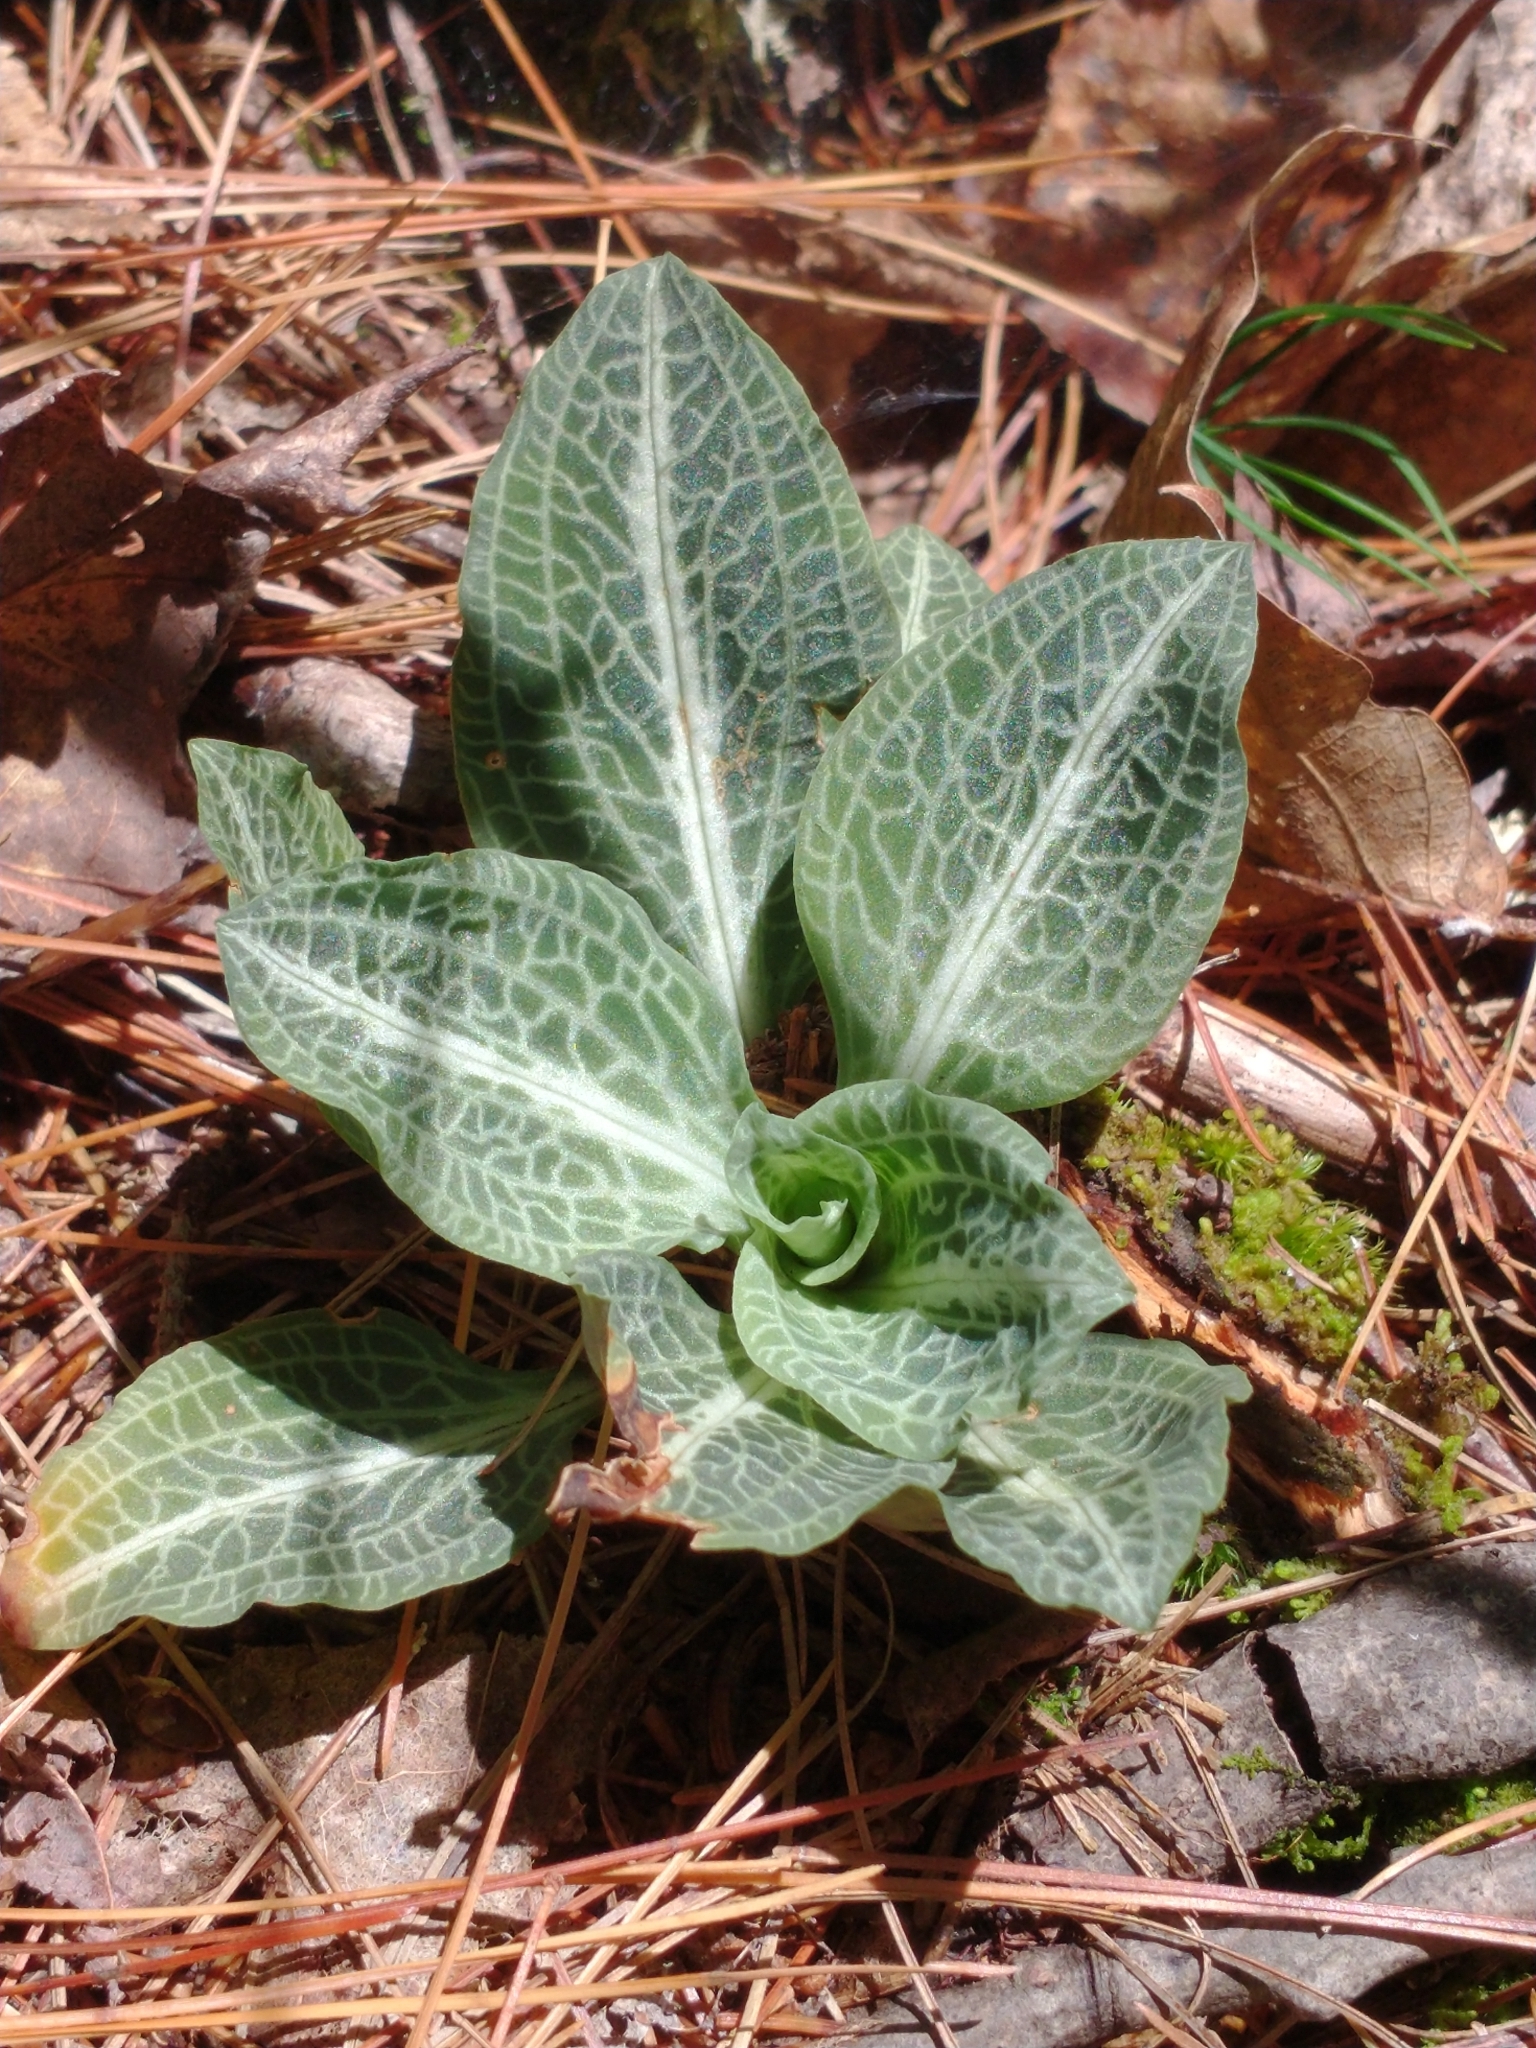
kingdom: Plantae
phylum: Tracheophyta
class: Liliopsida
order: Asparagales
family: Orchidaceae
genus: Goodyera
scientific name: Goodyera pubescens
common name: Downy rattlesnake-plantain
